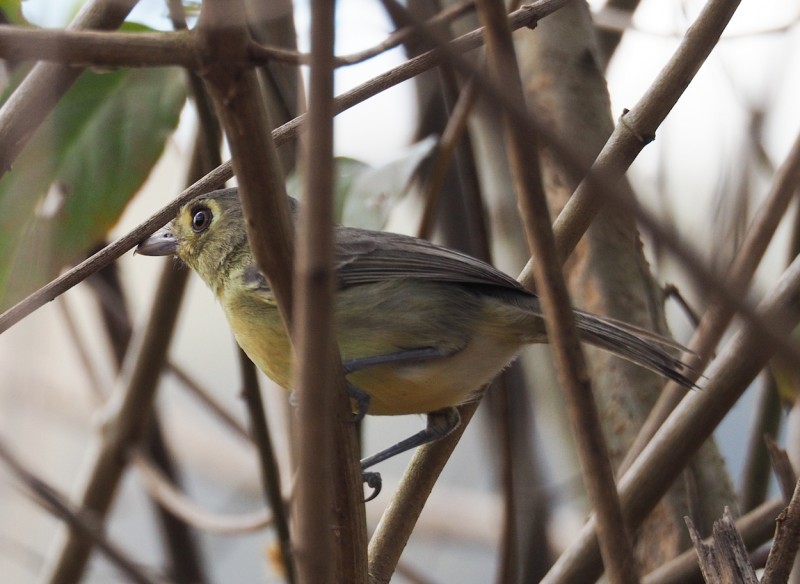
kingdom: Animalia
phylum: Chordata
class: Aves
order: Passeriformes
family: Vireonidae
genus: Vireo
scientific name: Vireo gundlachii
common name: Cuban vireo
